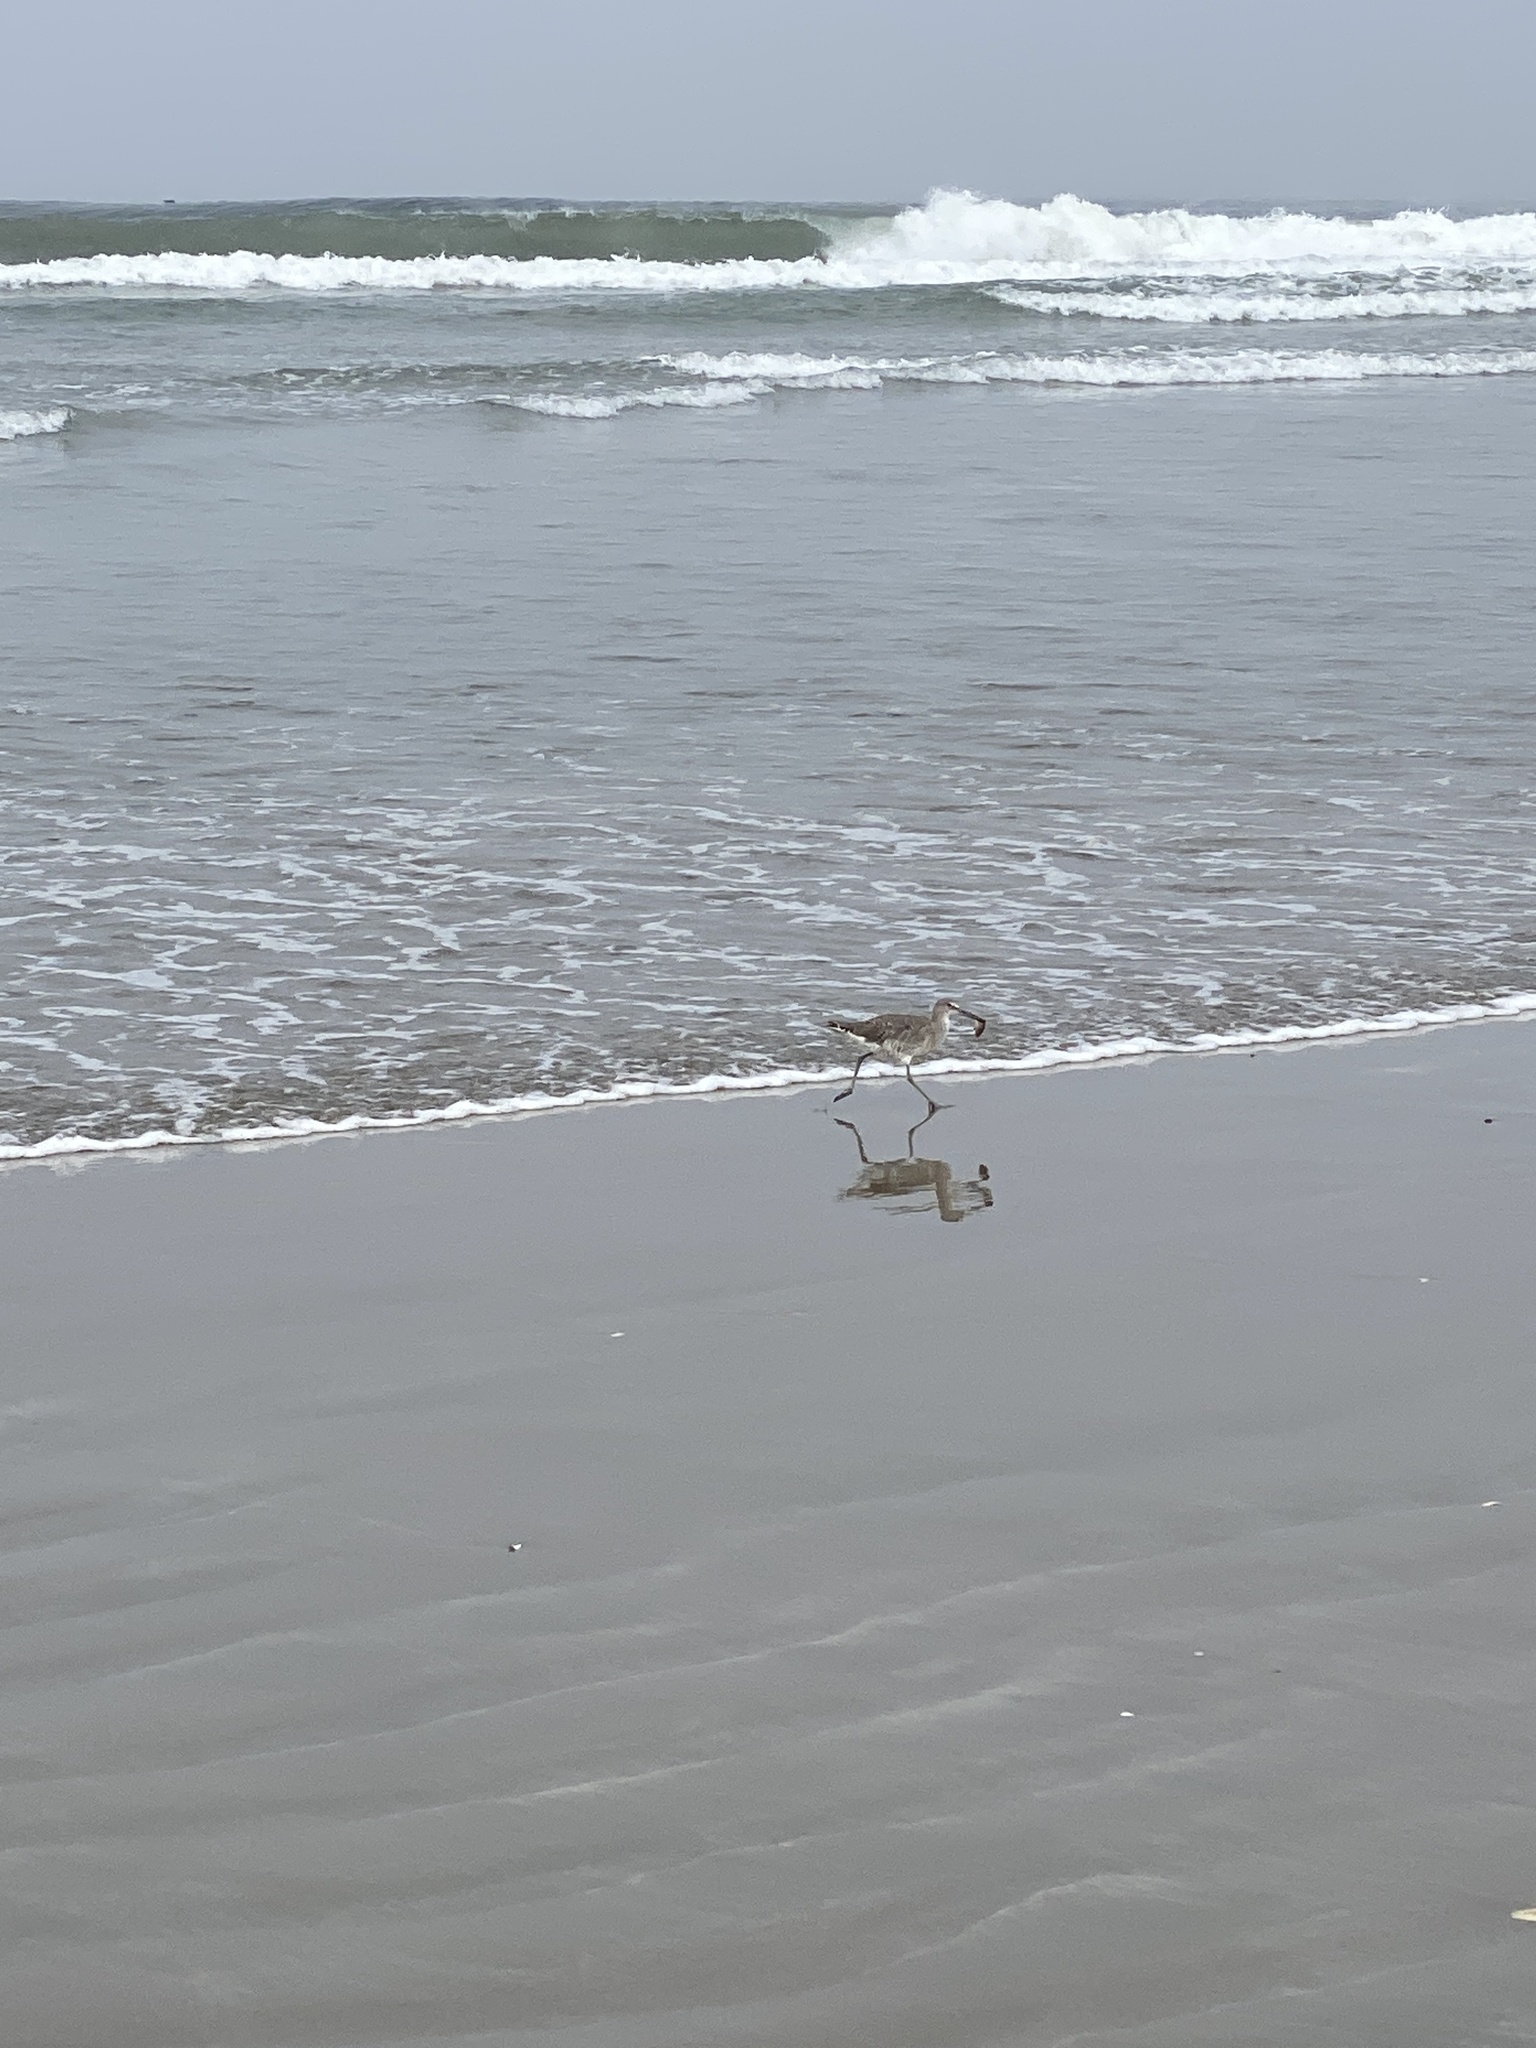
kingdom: Animalia
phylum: Chordata
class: Aves
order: Charadriiformes
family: Scolopacidae
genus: Tringa
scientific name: Tringa semipalmata
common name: Willet
